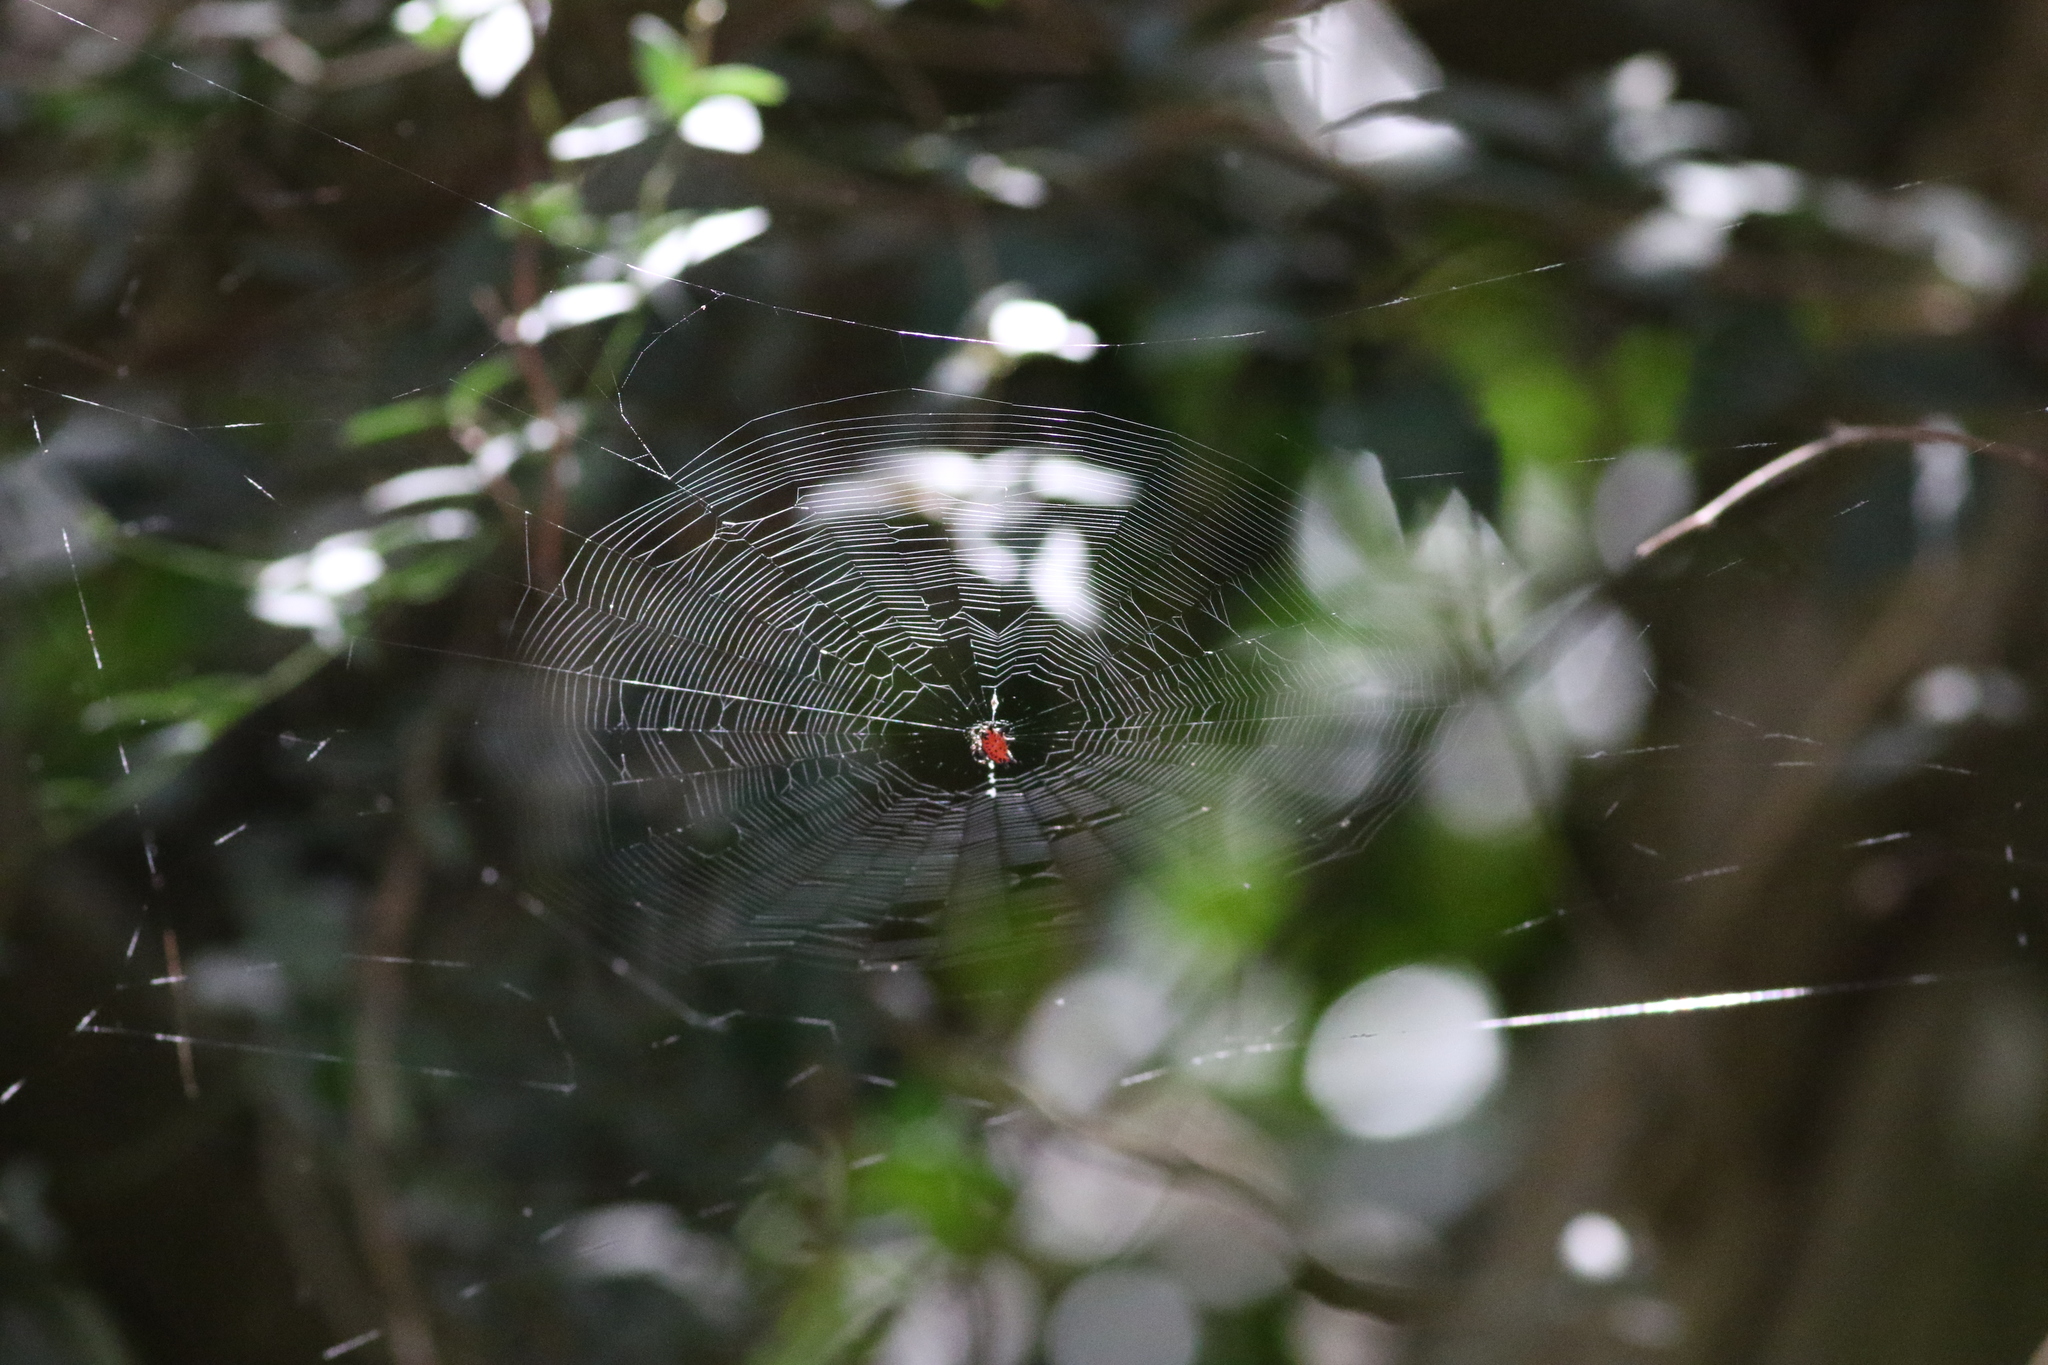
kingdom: Animalia
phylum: Arthropoda
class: Arachnida
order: Araneae
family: Araneidae
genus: Gasteracantha
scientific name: Gasteracantha cancriformis
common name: Orb weavers
